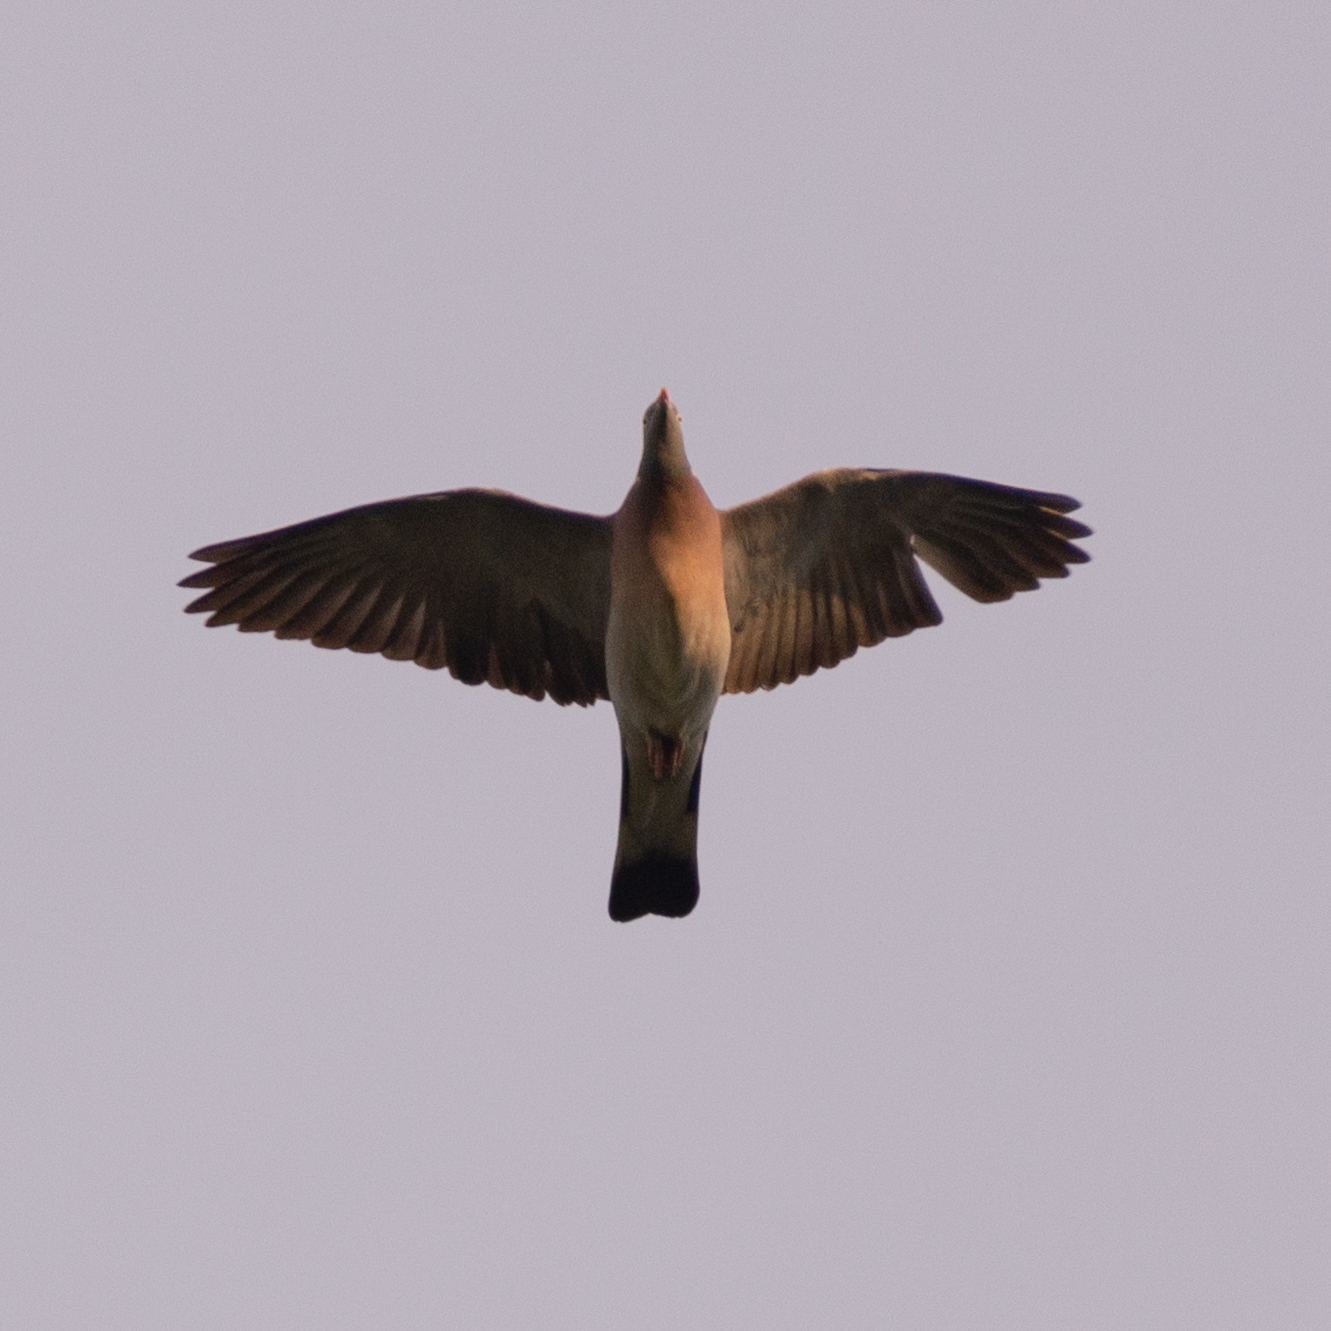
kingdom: Animalia
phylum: Chordata
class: Aves
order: Columbiformes
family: Columbidae
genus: Columba
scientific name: Columba palumbus
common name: Common wood pigeon
